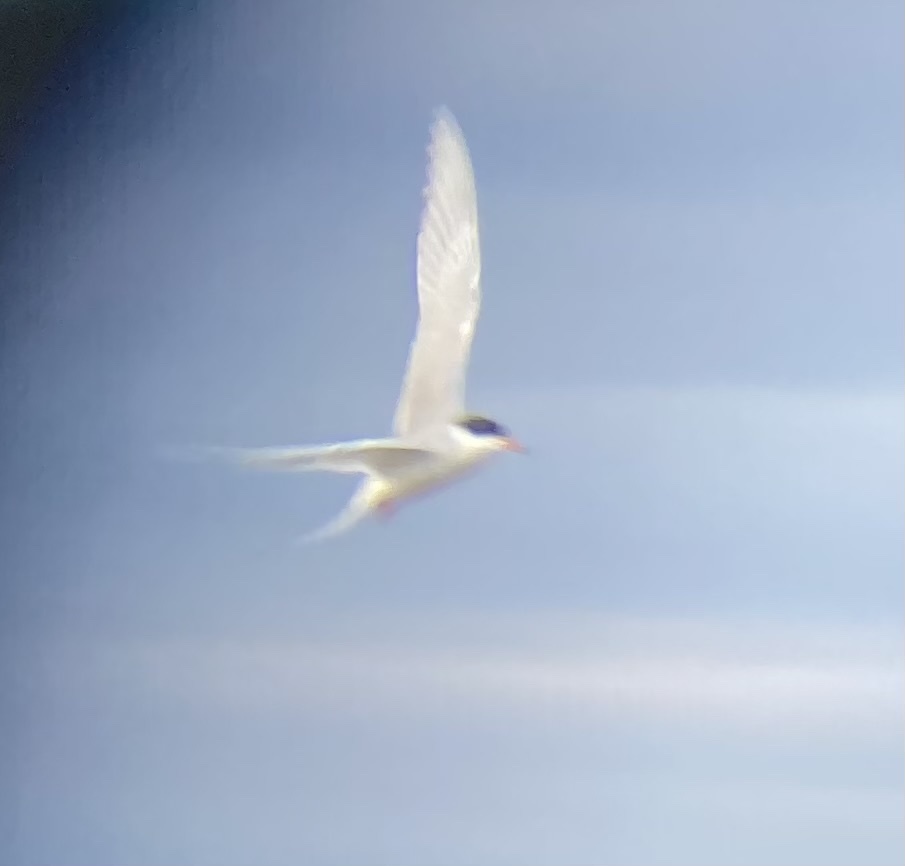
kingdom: Animalia
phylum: Chordata
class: Aves
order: Charadriiformes
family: Laridae
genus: Sterna
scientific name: Sterna forsteri
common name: Forster's tern
